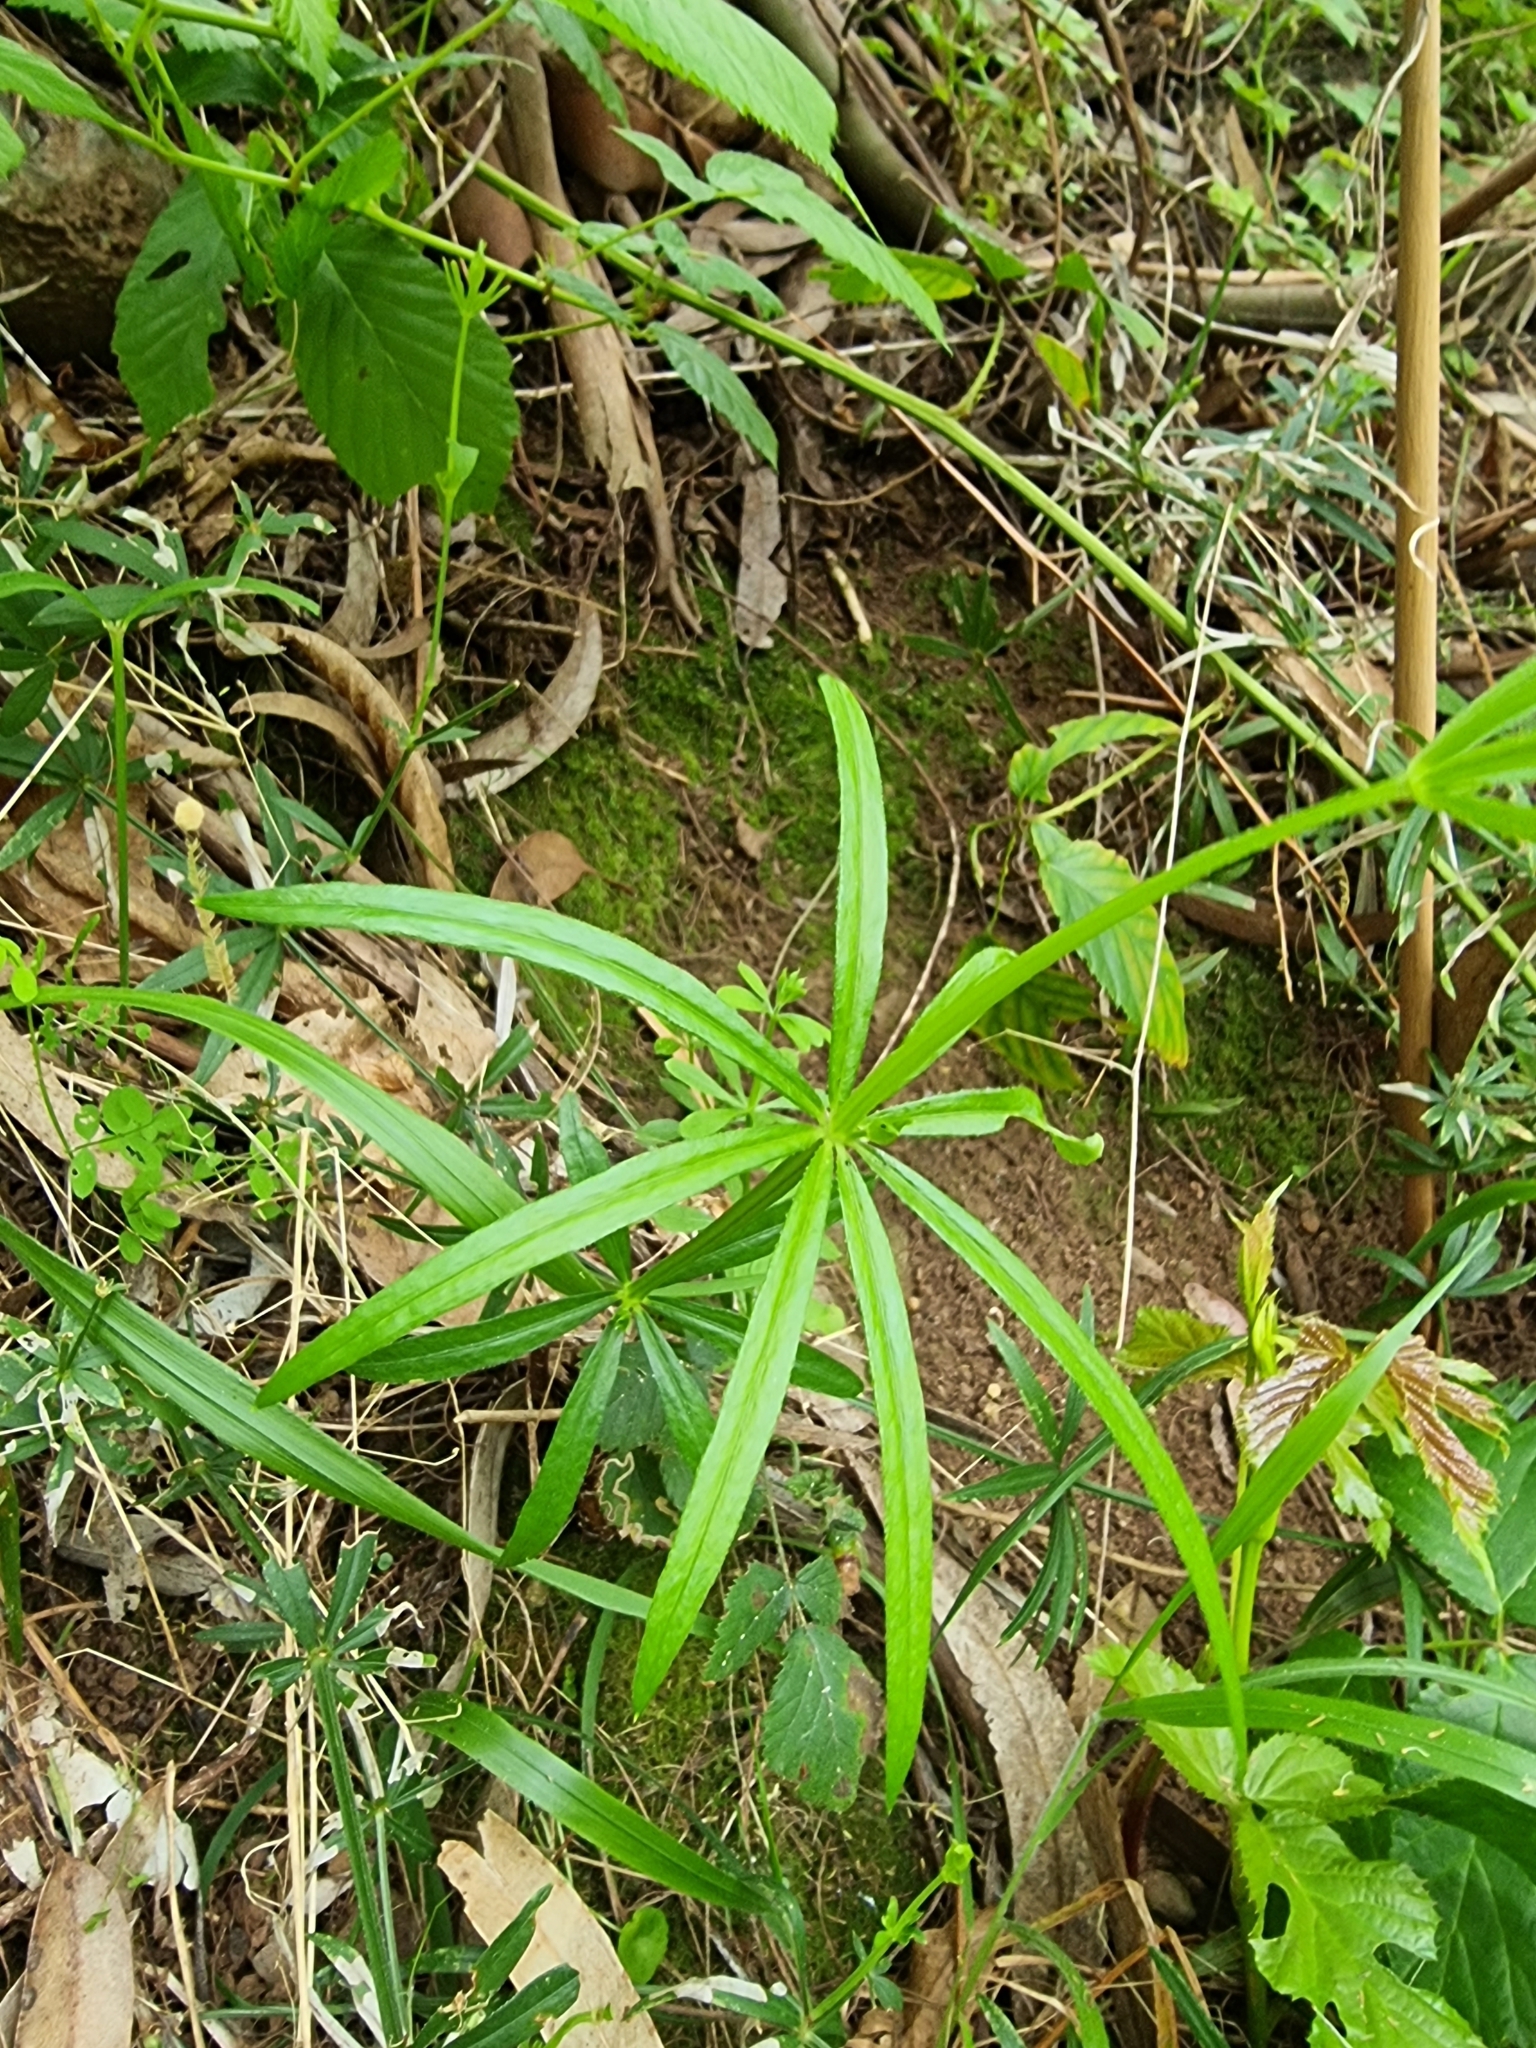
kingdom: Plantae
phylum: Tracheophyta
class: Magnoliopsida
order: Gentianales
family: Rubiaceae
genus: Rubia
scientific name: Rubia occidens
